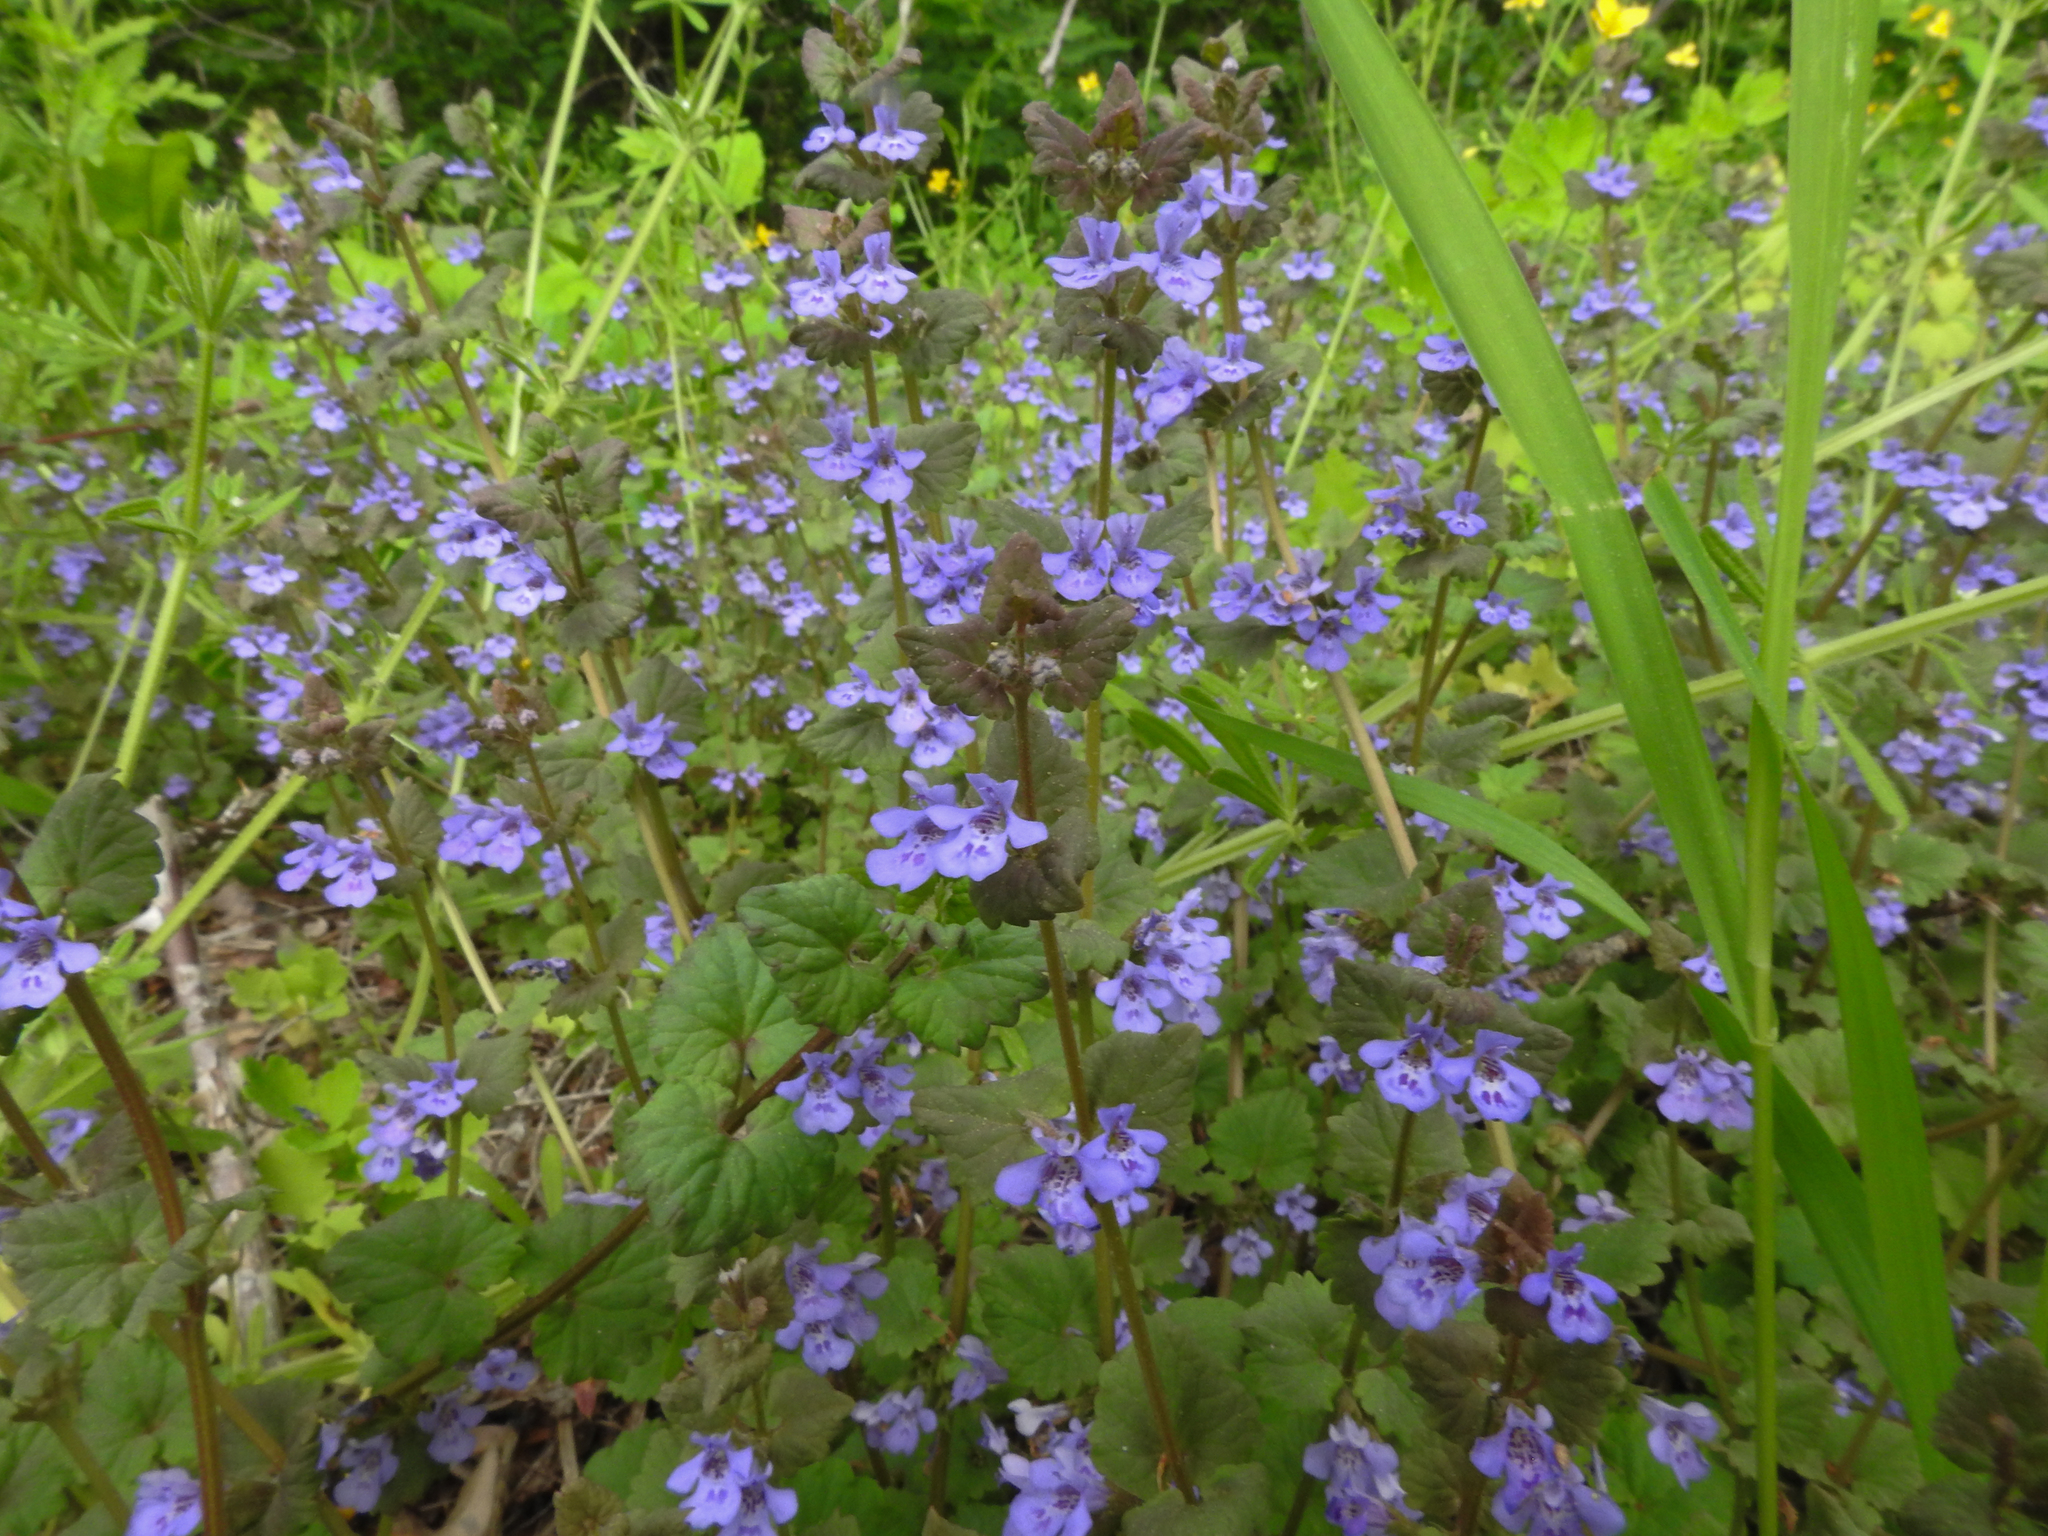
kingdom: Plantae
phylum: Tracheophyta
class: Magnoliopsida
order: Lamiales
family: Lamiaceae
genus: Glechoma
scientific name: Glechoma hederacea
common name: Ground ivy
